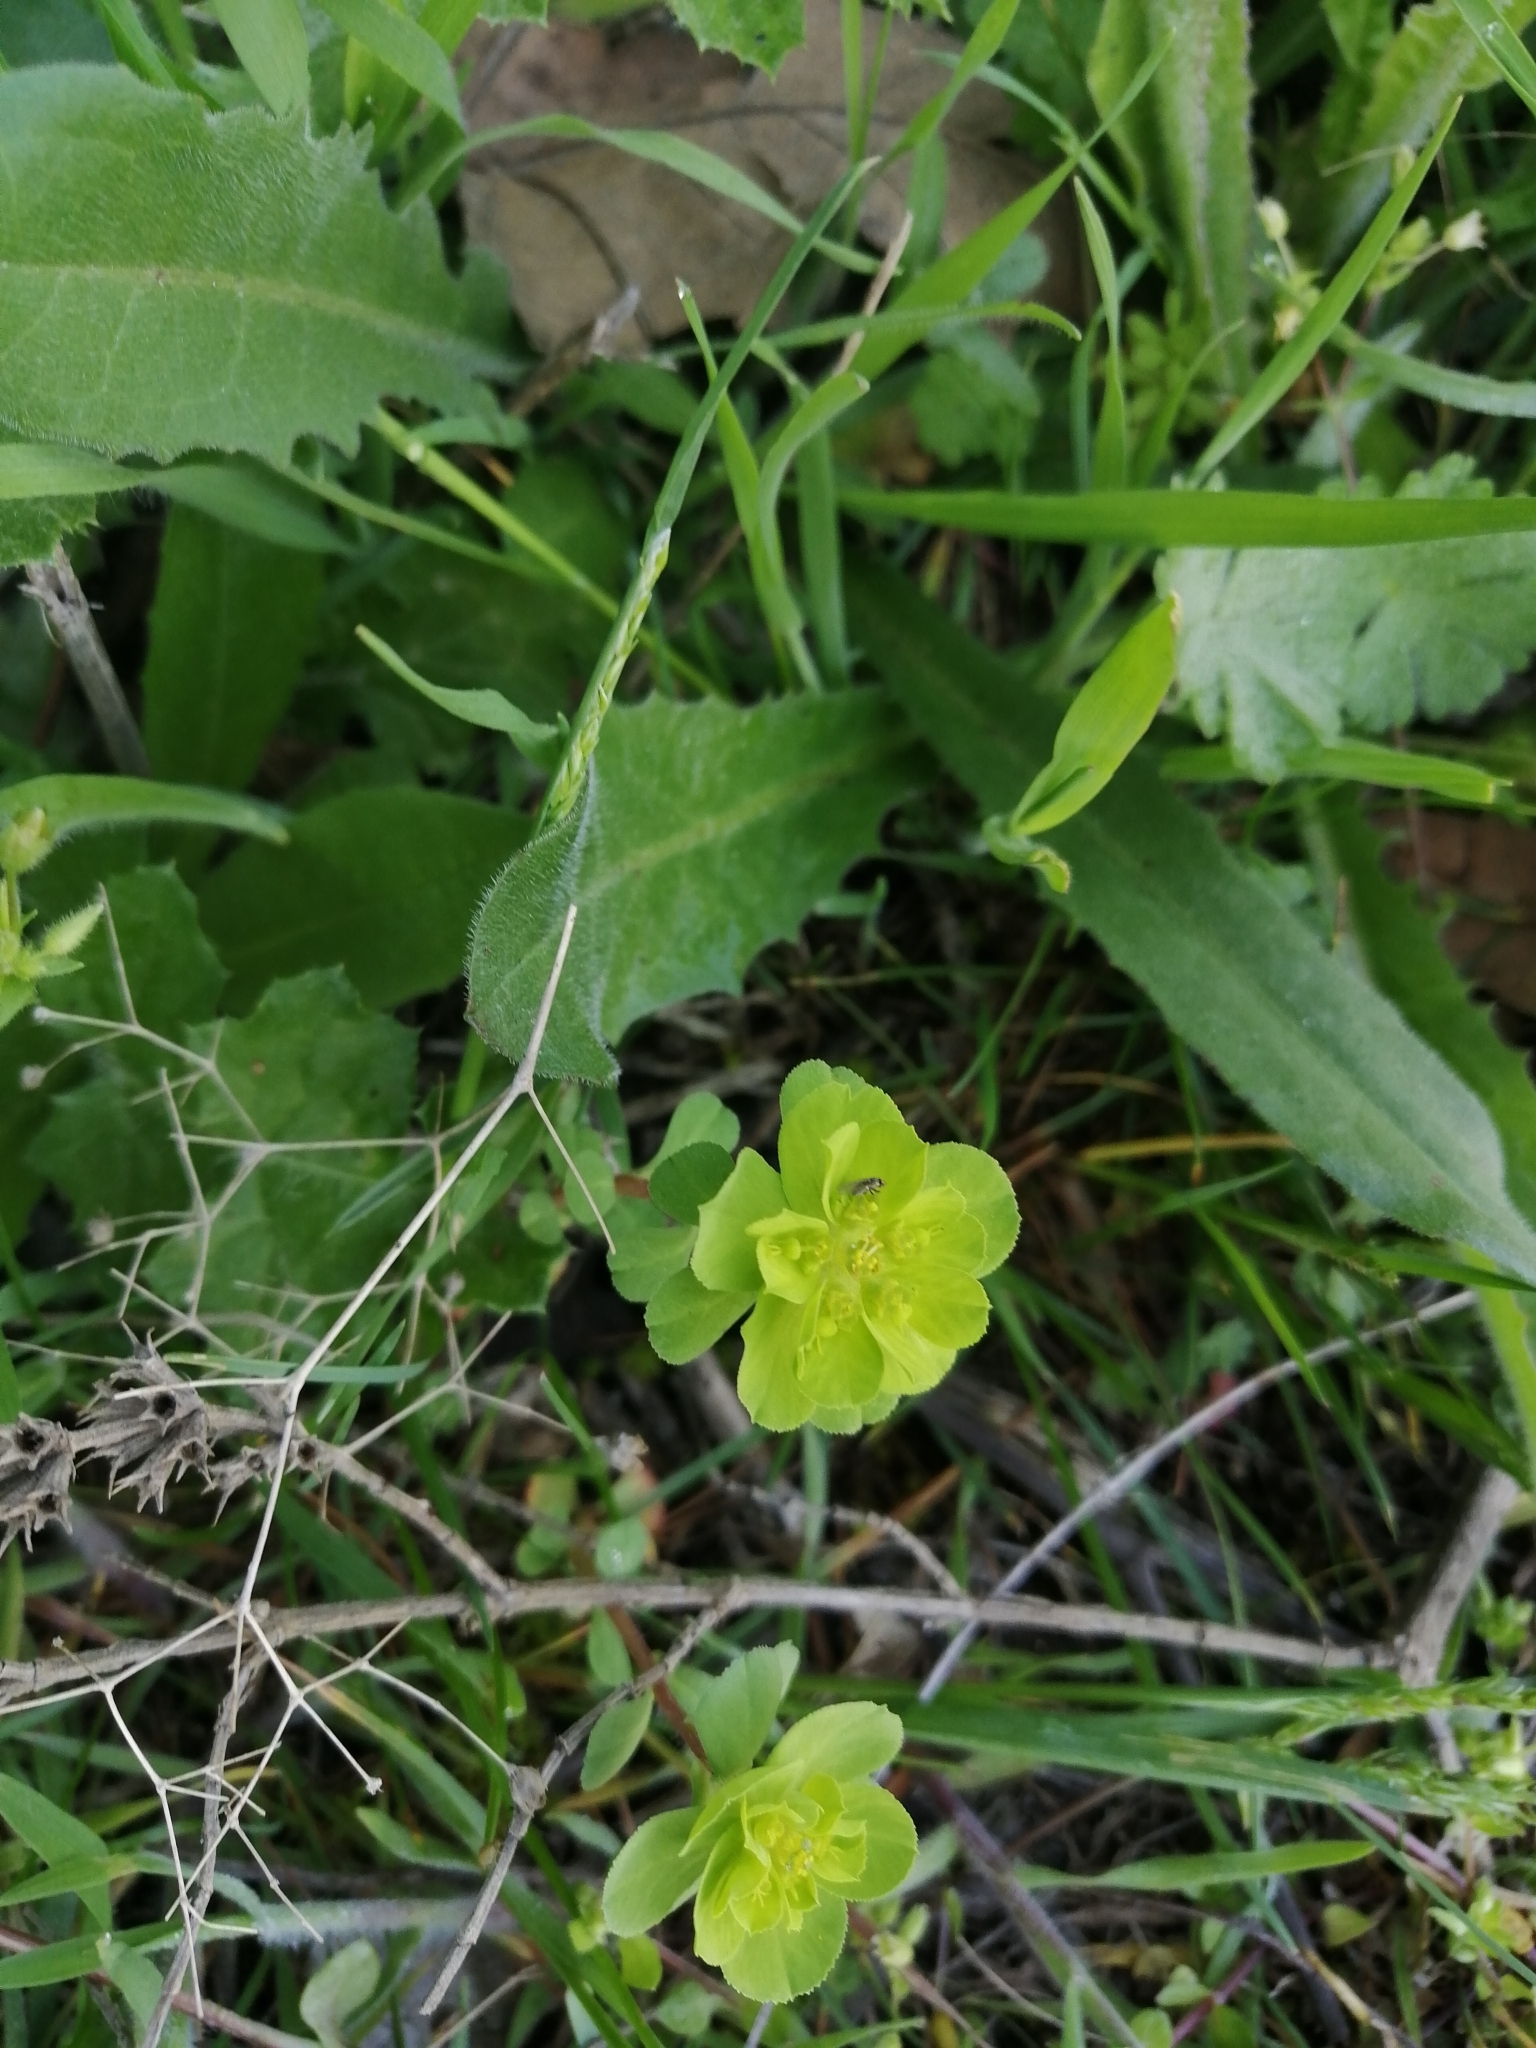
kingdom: Plantae
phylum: Tracheophyta
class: Magnoliopsida
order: Malpighiales
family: Euphorbiaceae
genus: Euphorbia
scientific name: Euphorbia helioscopia
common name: Sun spurge
